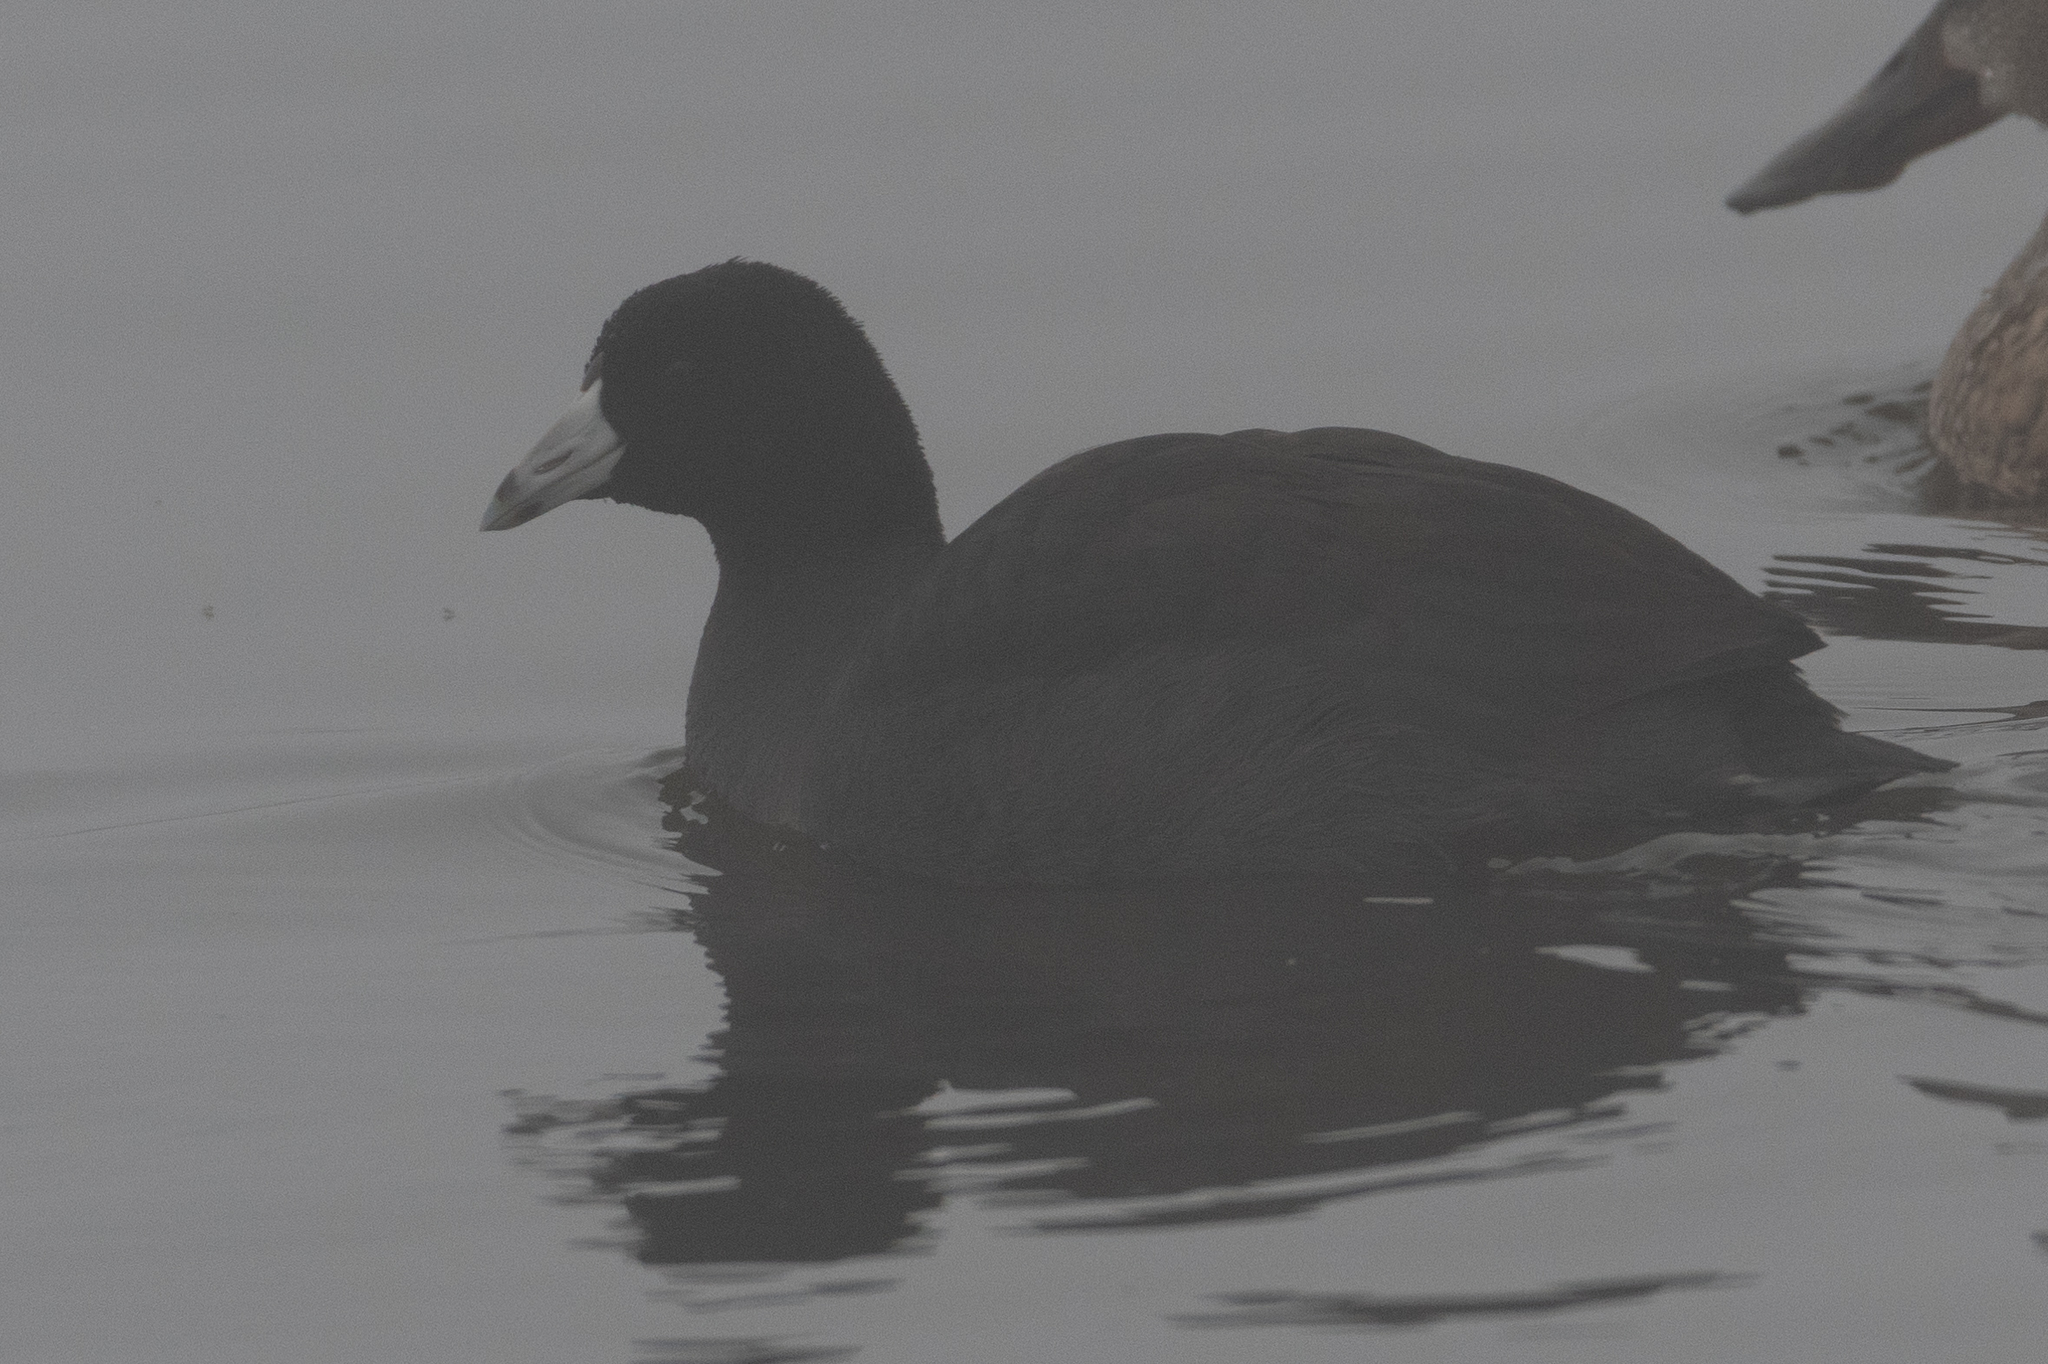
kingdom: Animalia
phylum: Chordata
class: Aves
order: Gruiformes
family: Rallidae
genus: Fulica
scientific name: Fulica americana
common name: American coot
